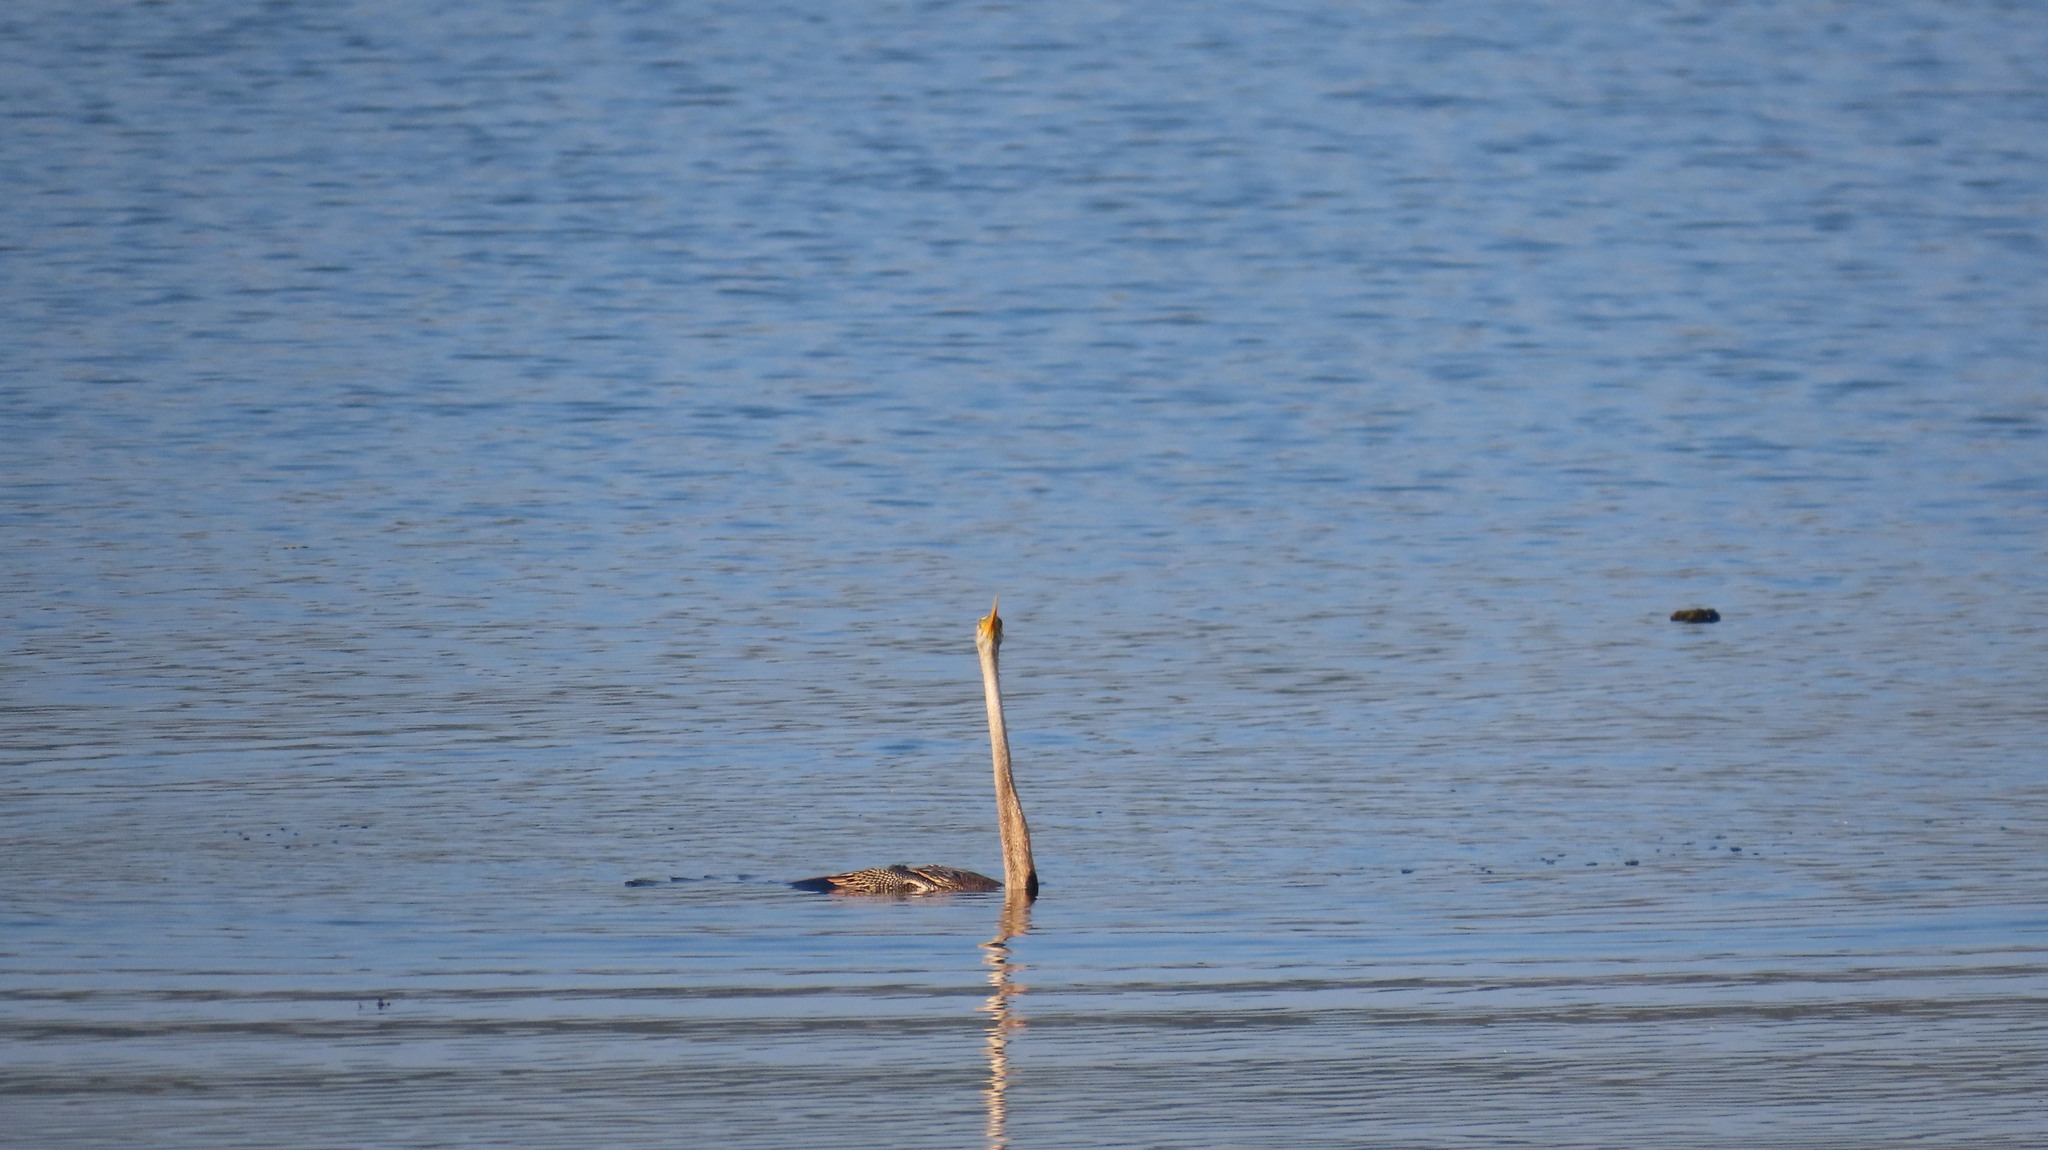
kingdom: Animalia
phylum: Chordata
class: Aves
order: Suliformes
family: Anhingidae
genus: Anhinga
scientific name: Anhinga melanogaster
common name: Oriental darter
